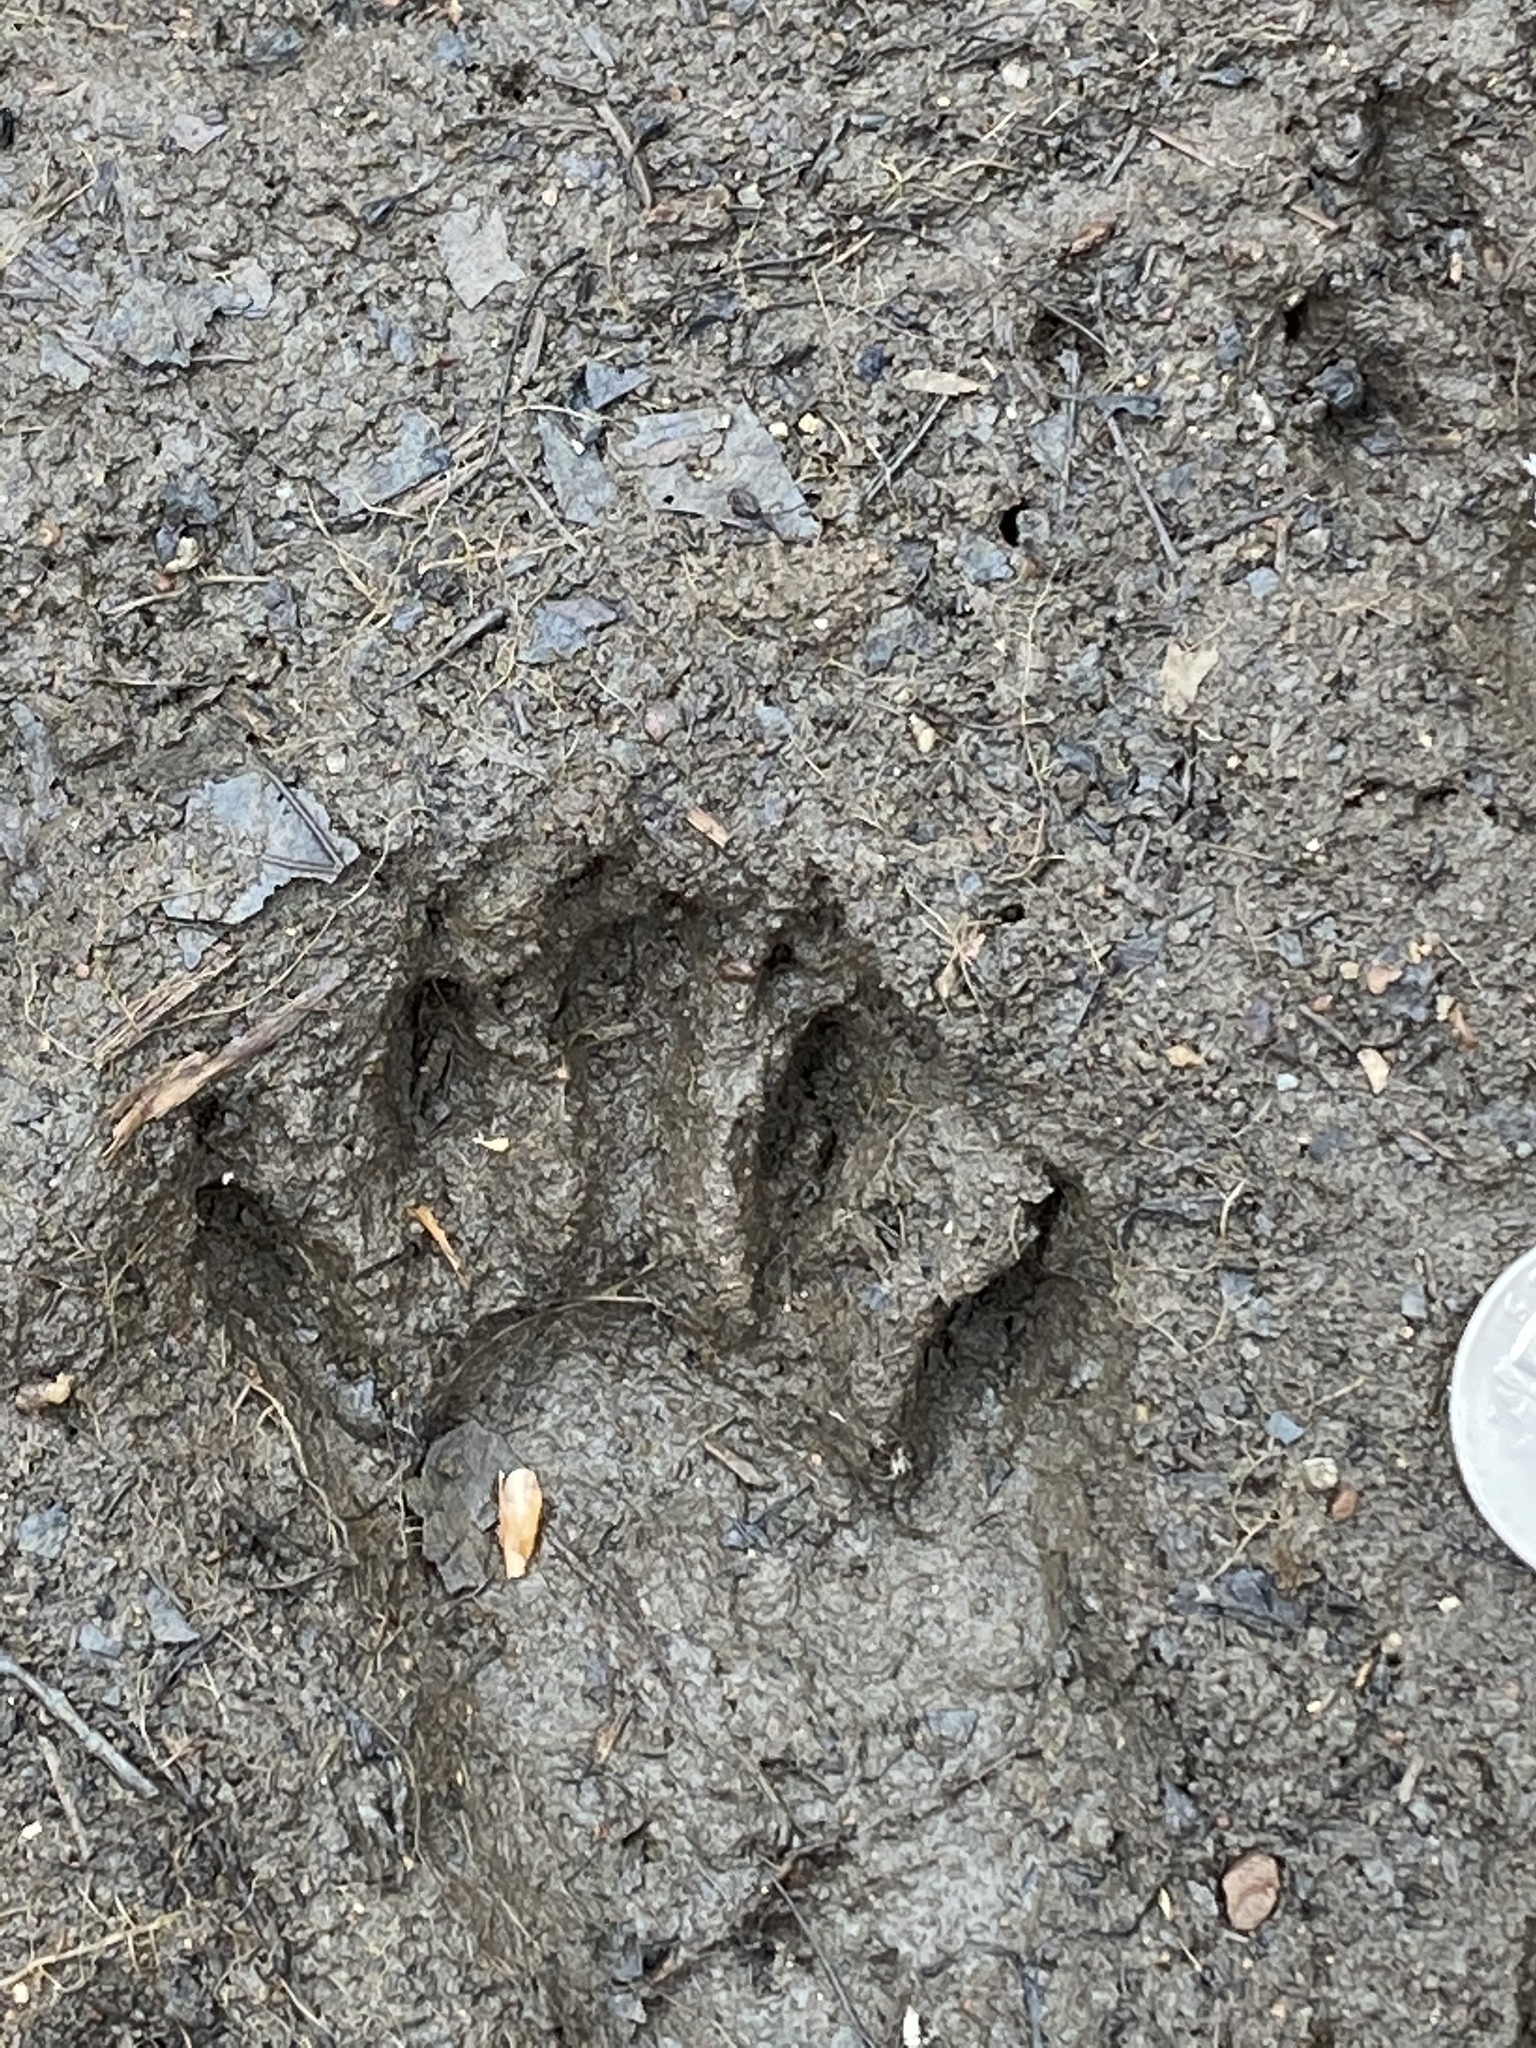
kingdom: Animalia
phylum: Chordata
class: Mammalia
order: Carnivora
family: Procyonidae
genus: Procyon
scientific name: Procyon lotor
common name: Raccoon
